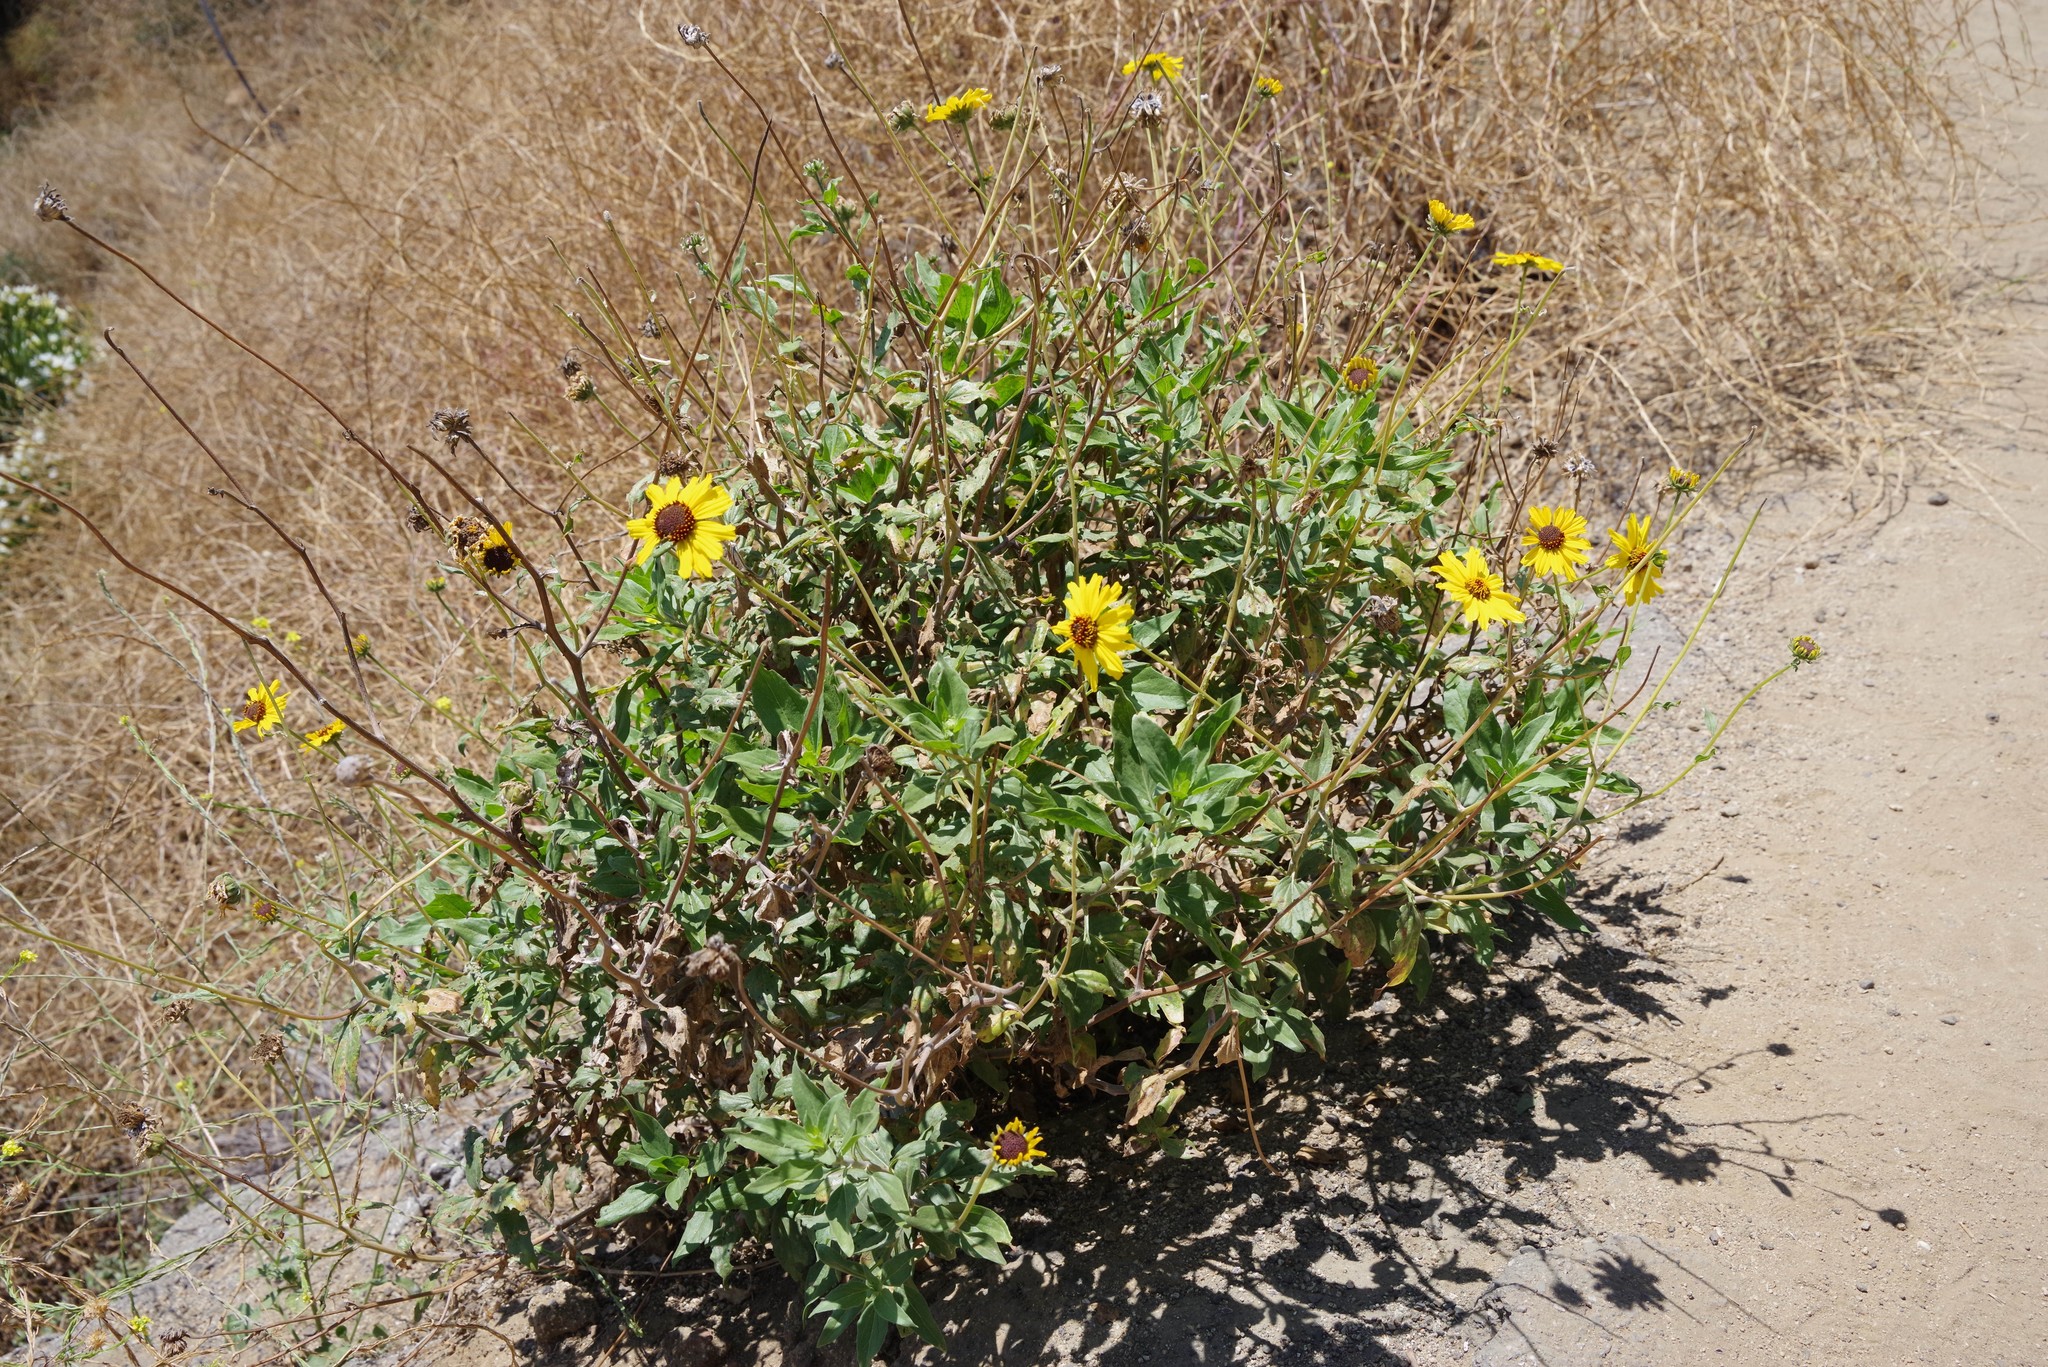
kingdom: Plantae
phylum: Tracheophyta
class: Magnoliopsida
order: Asterales
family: Asteraceae
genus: Encelia
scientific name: Encelia californica
